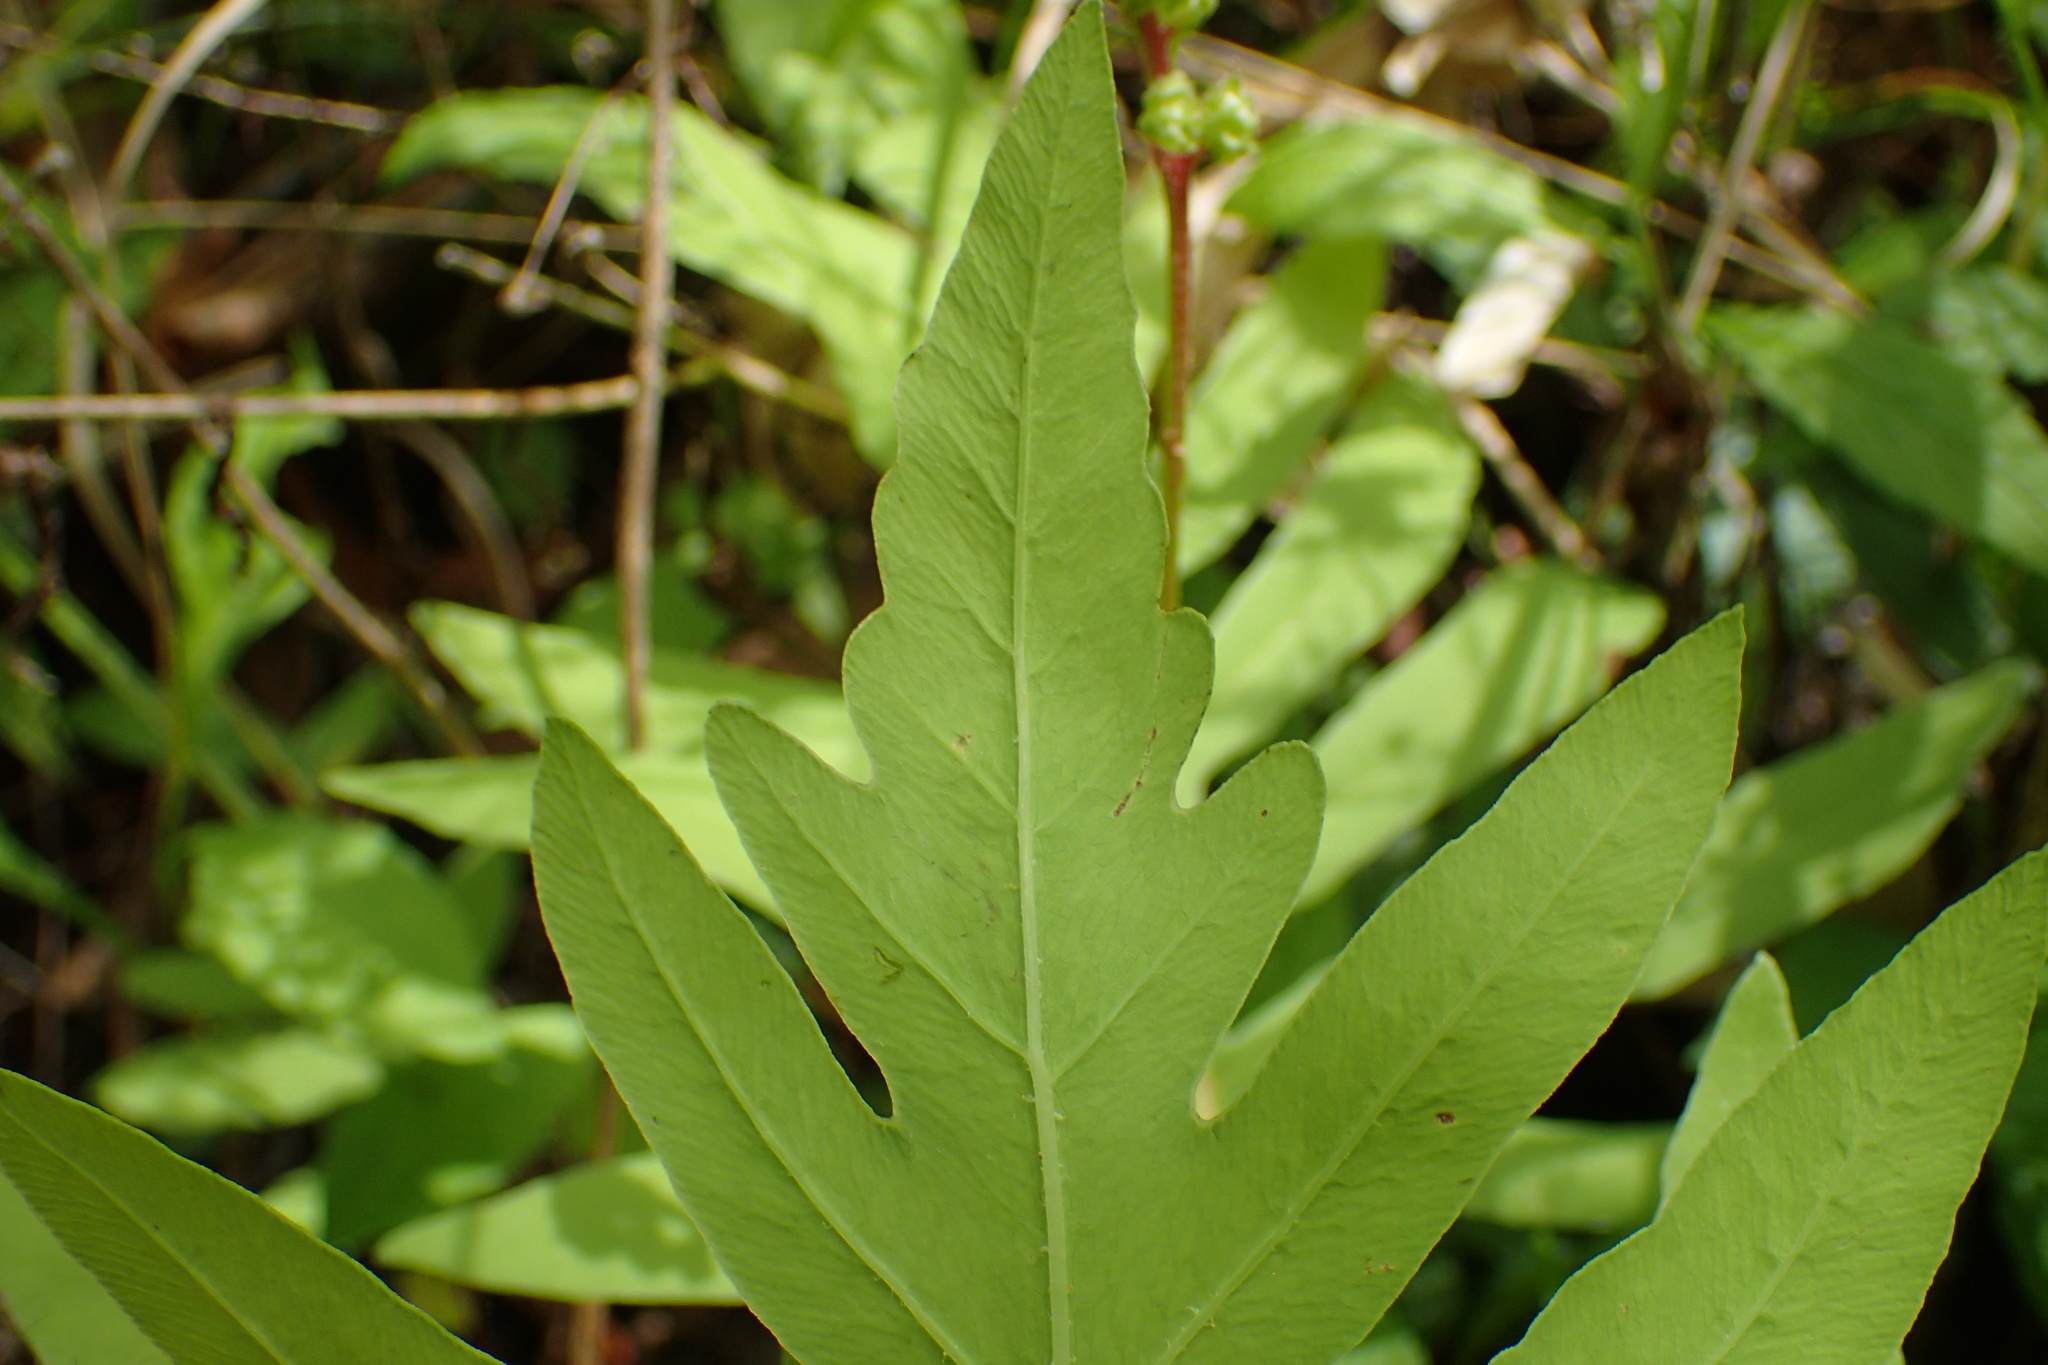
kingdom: Plantae
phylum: Tracheophyta
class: Polypodiopsida
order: Polypodiales
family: Onocleaceae
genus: Onoclea
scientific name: Onoclea sensibilis
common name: Sensitive fern
